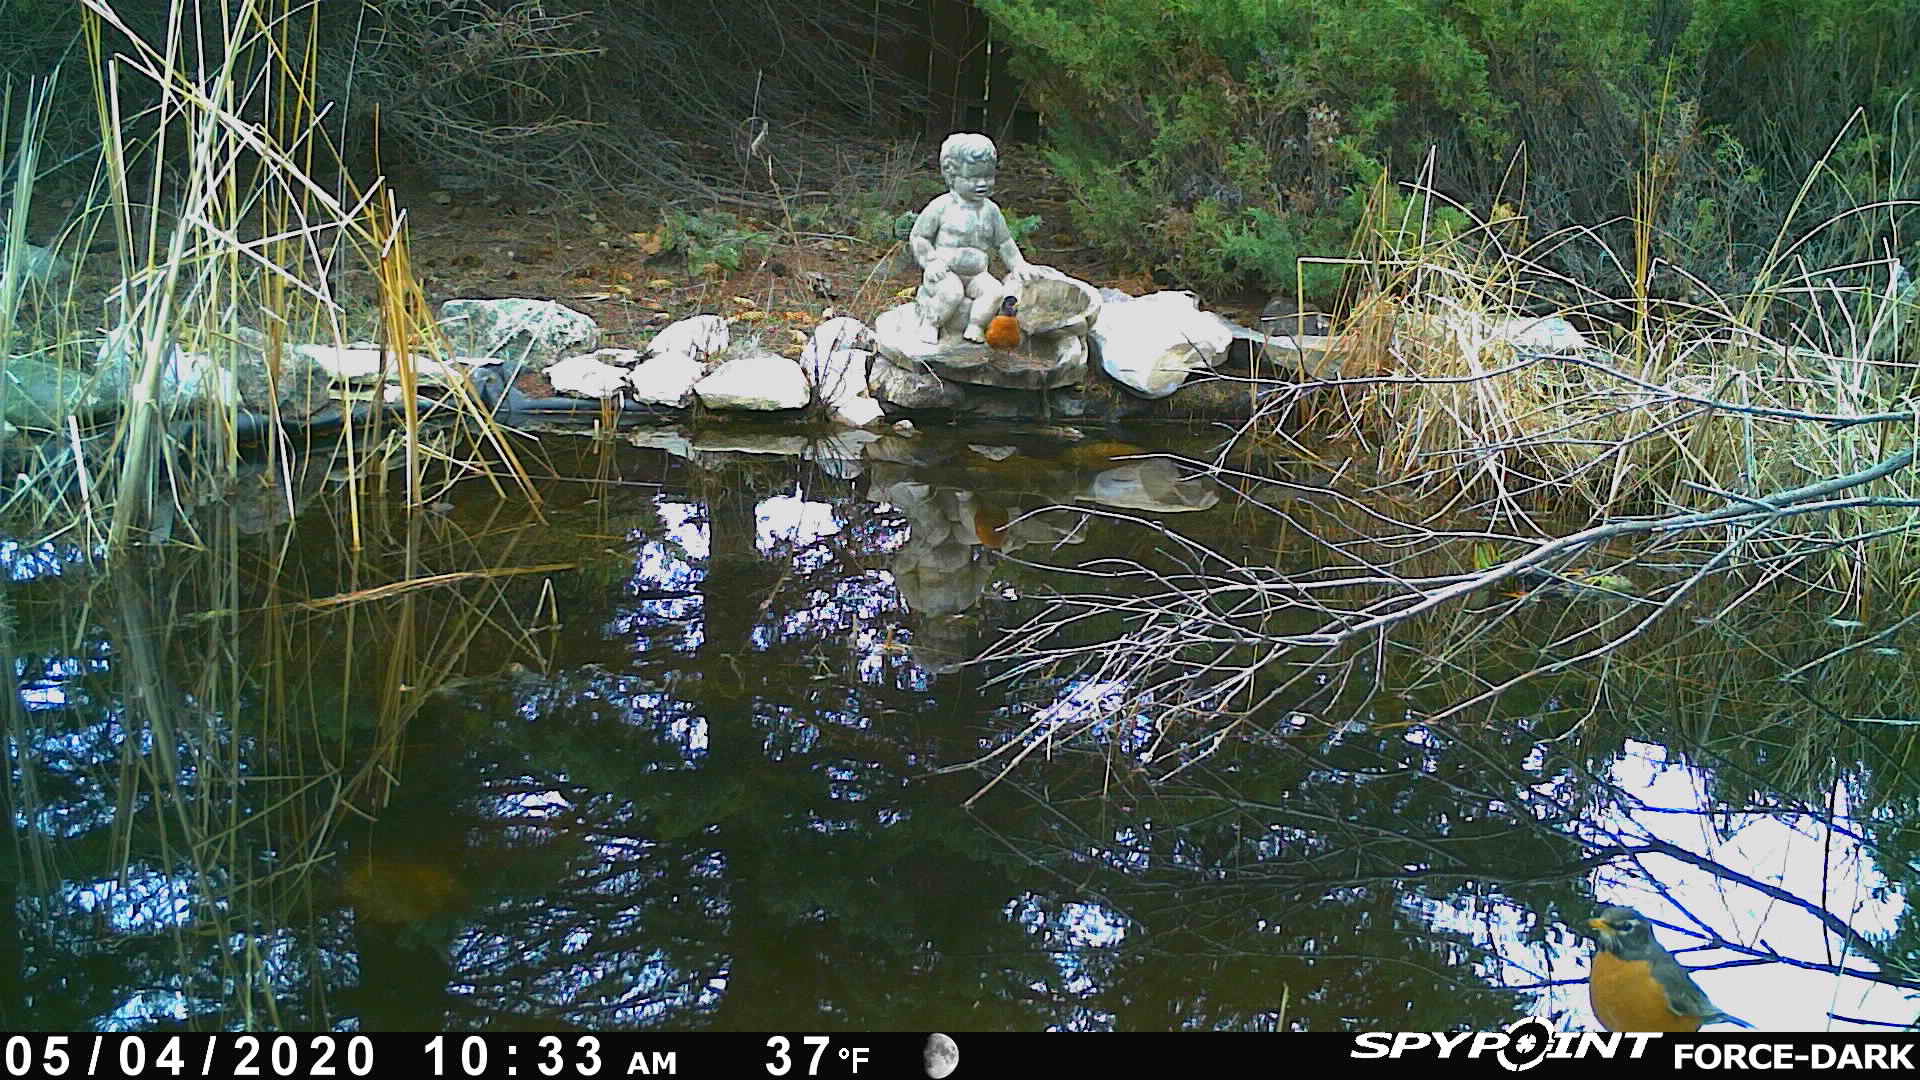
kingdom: Animalia
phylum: Chordata
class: Aves
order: Passeriformes
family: Turdidae
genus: Turdus
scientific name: Turdus migratorius
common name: American robin
